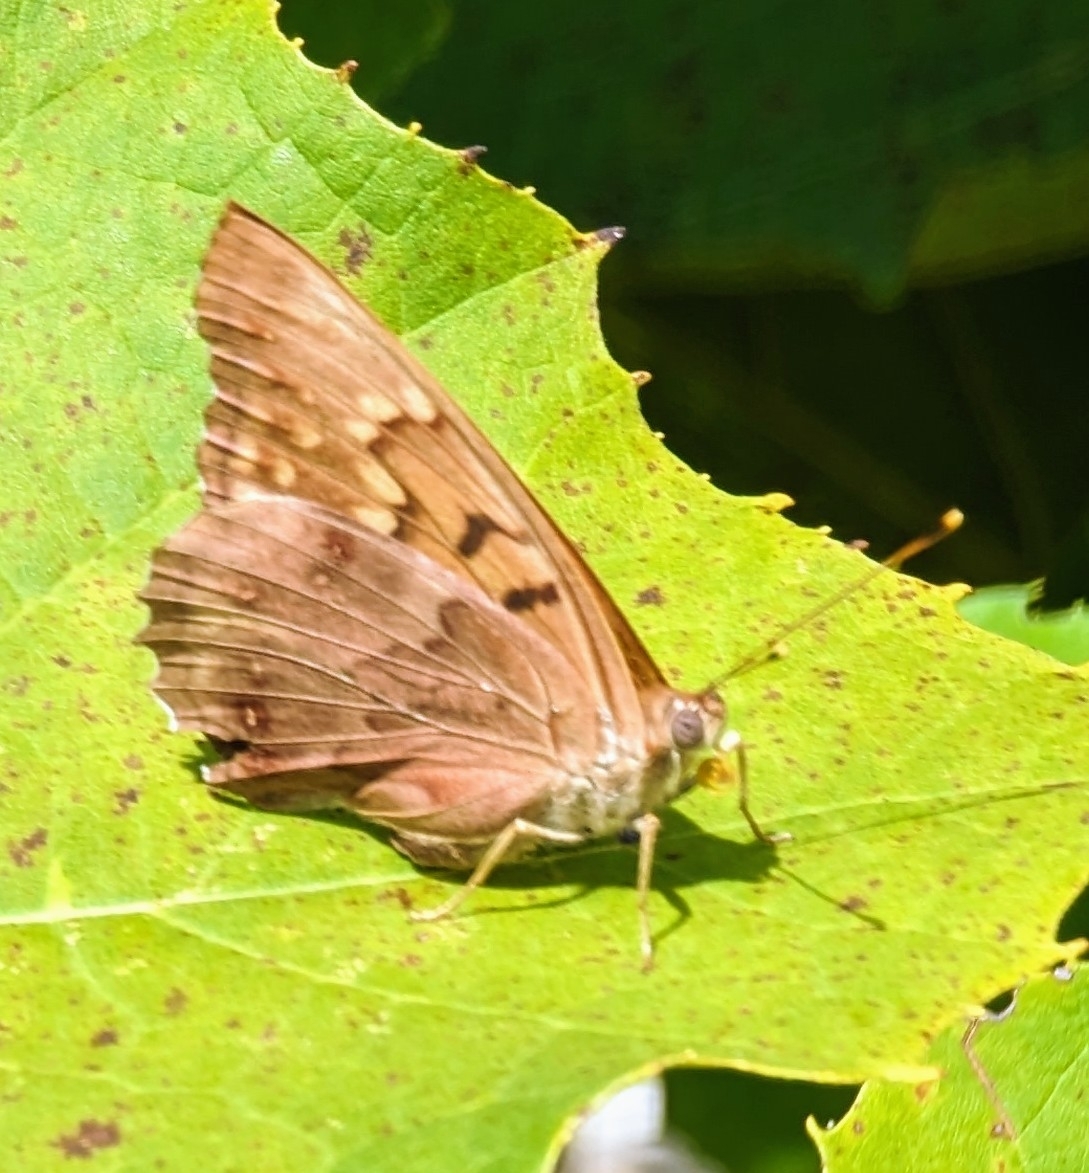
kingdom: Animalia
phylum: Arthropoda
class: Insecta
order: Lepidoptera
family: Nymphalidae
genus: Asterocampa
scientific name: Asterocampa clyton
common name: Tawny emperor
